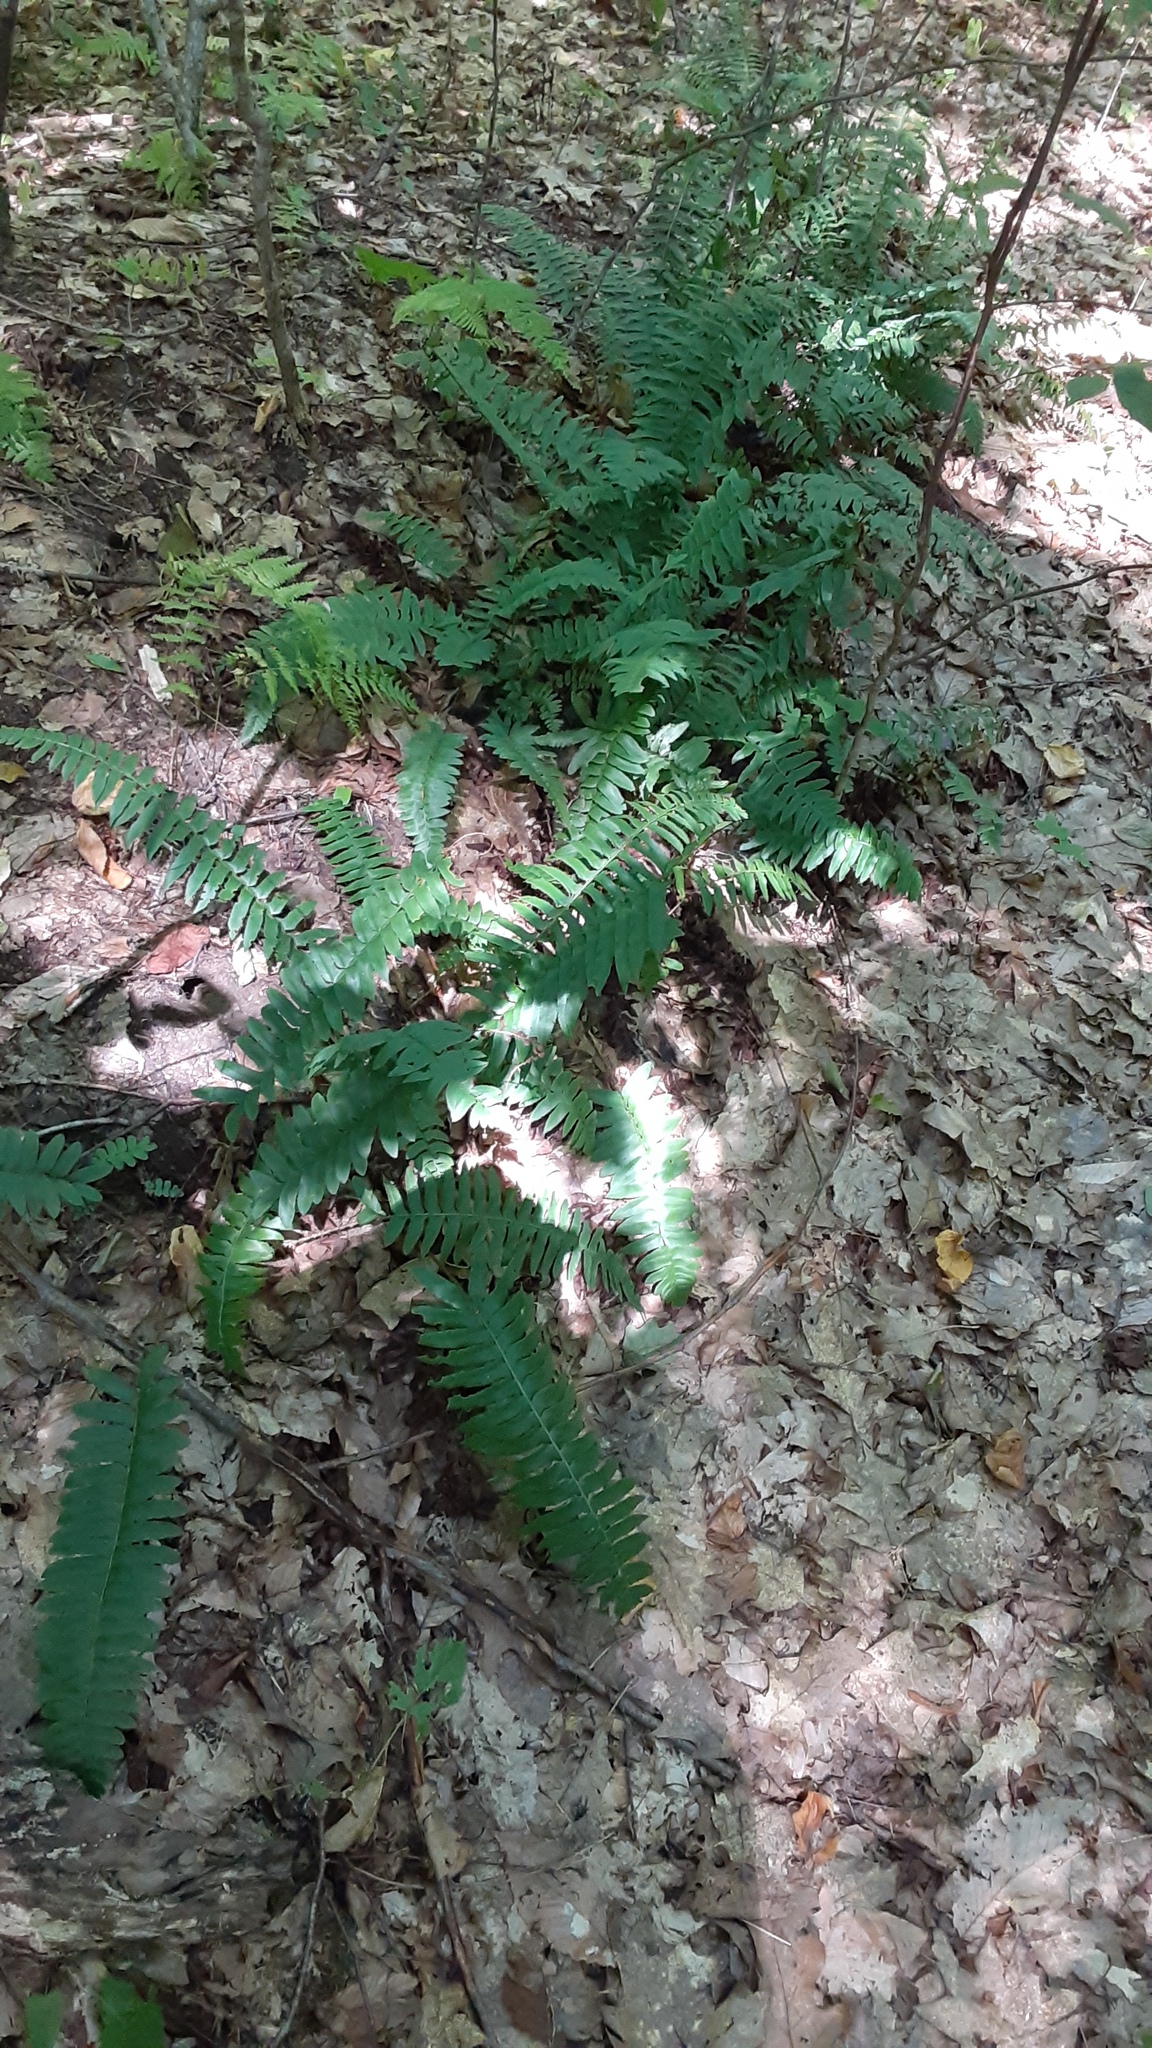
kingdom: Plantae
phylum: Tracheophyta
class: Polypodiopsida
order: Polypodiales
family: Dryopteridaceae
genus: Polystichum
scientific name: Polystichum acrostichoides
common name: Christmas fern
